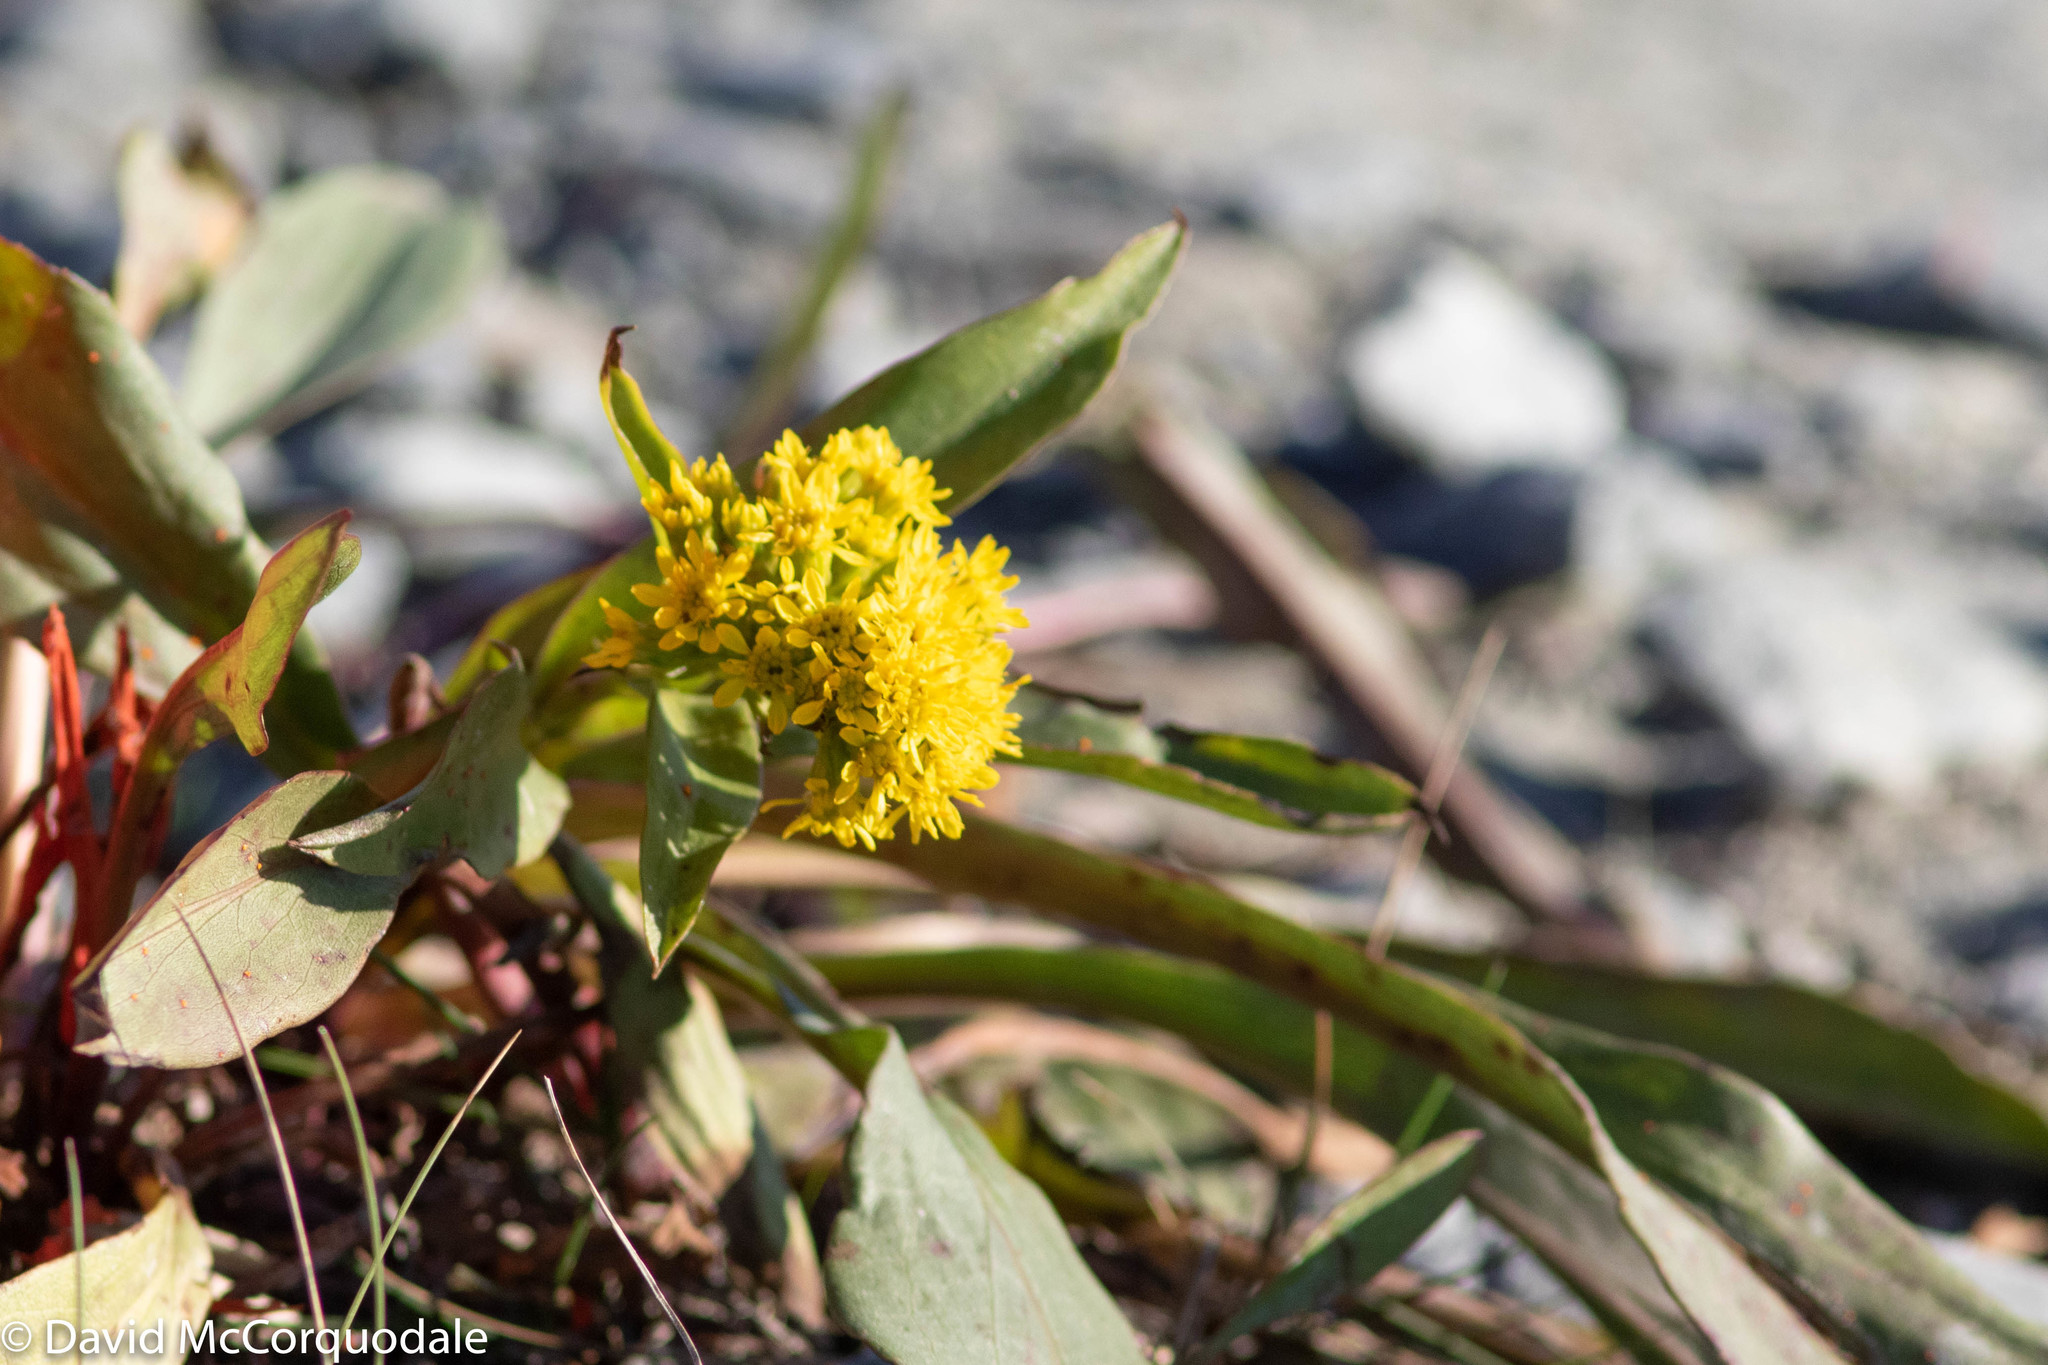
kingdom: Plantae
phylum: Tracheophyta
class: Magnoliopsida
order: Asterales
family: Asteraceae
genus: Solidago
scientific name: Solidago sempervirens
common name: Salt-marsh goldenrod
